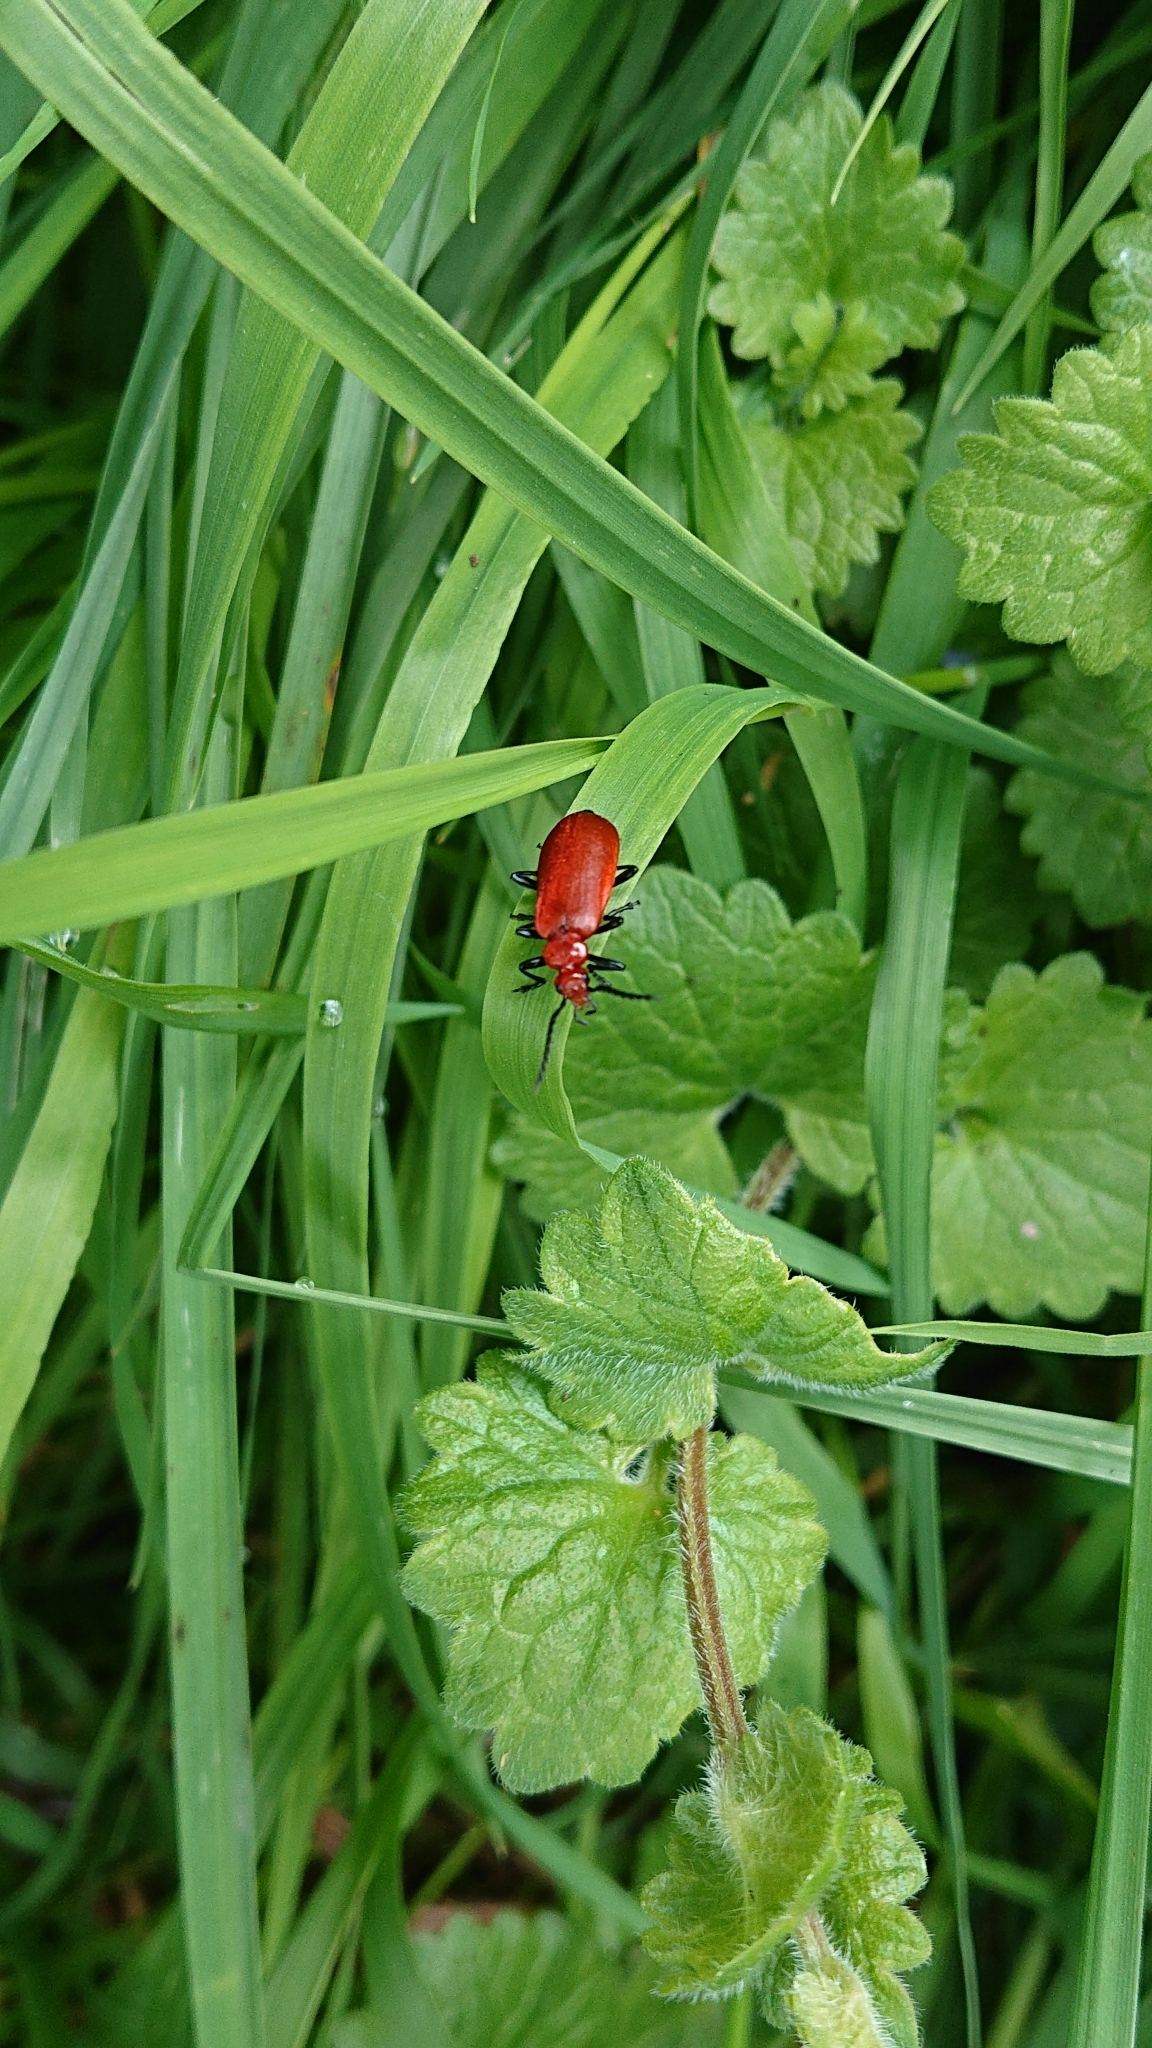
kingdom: Animalia
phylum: Arthropoda
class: Insecta
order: Coleoptera
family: Pyrochroidae
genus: Pyrochroa
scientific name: Pyrochroa serraticornis
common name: Red-headed cardinal beetle
